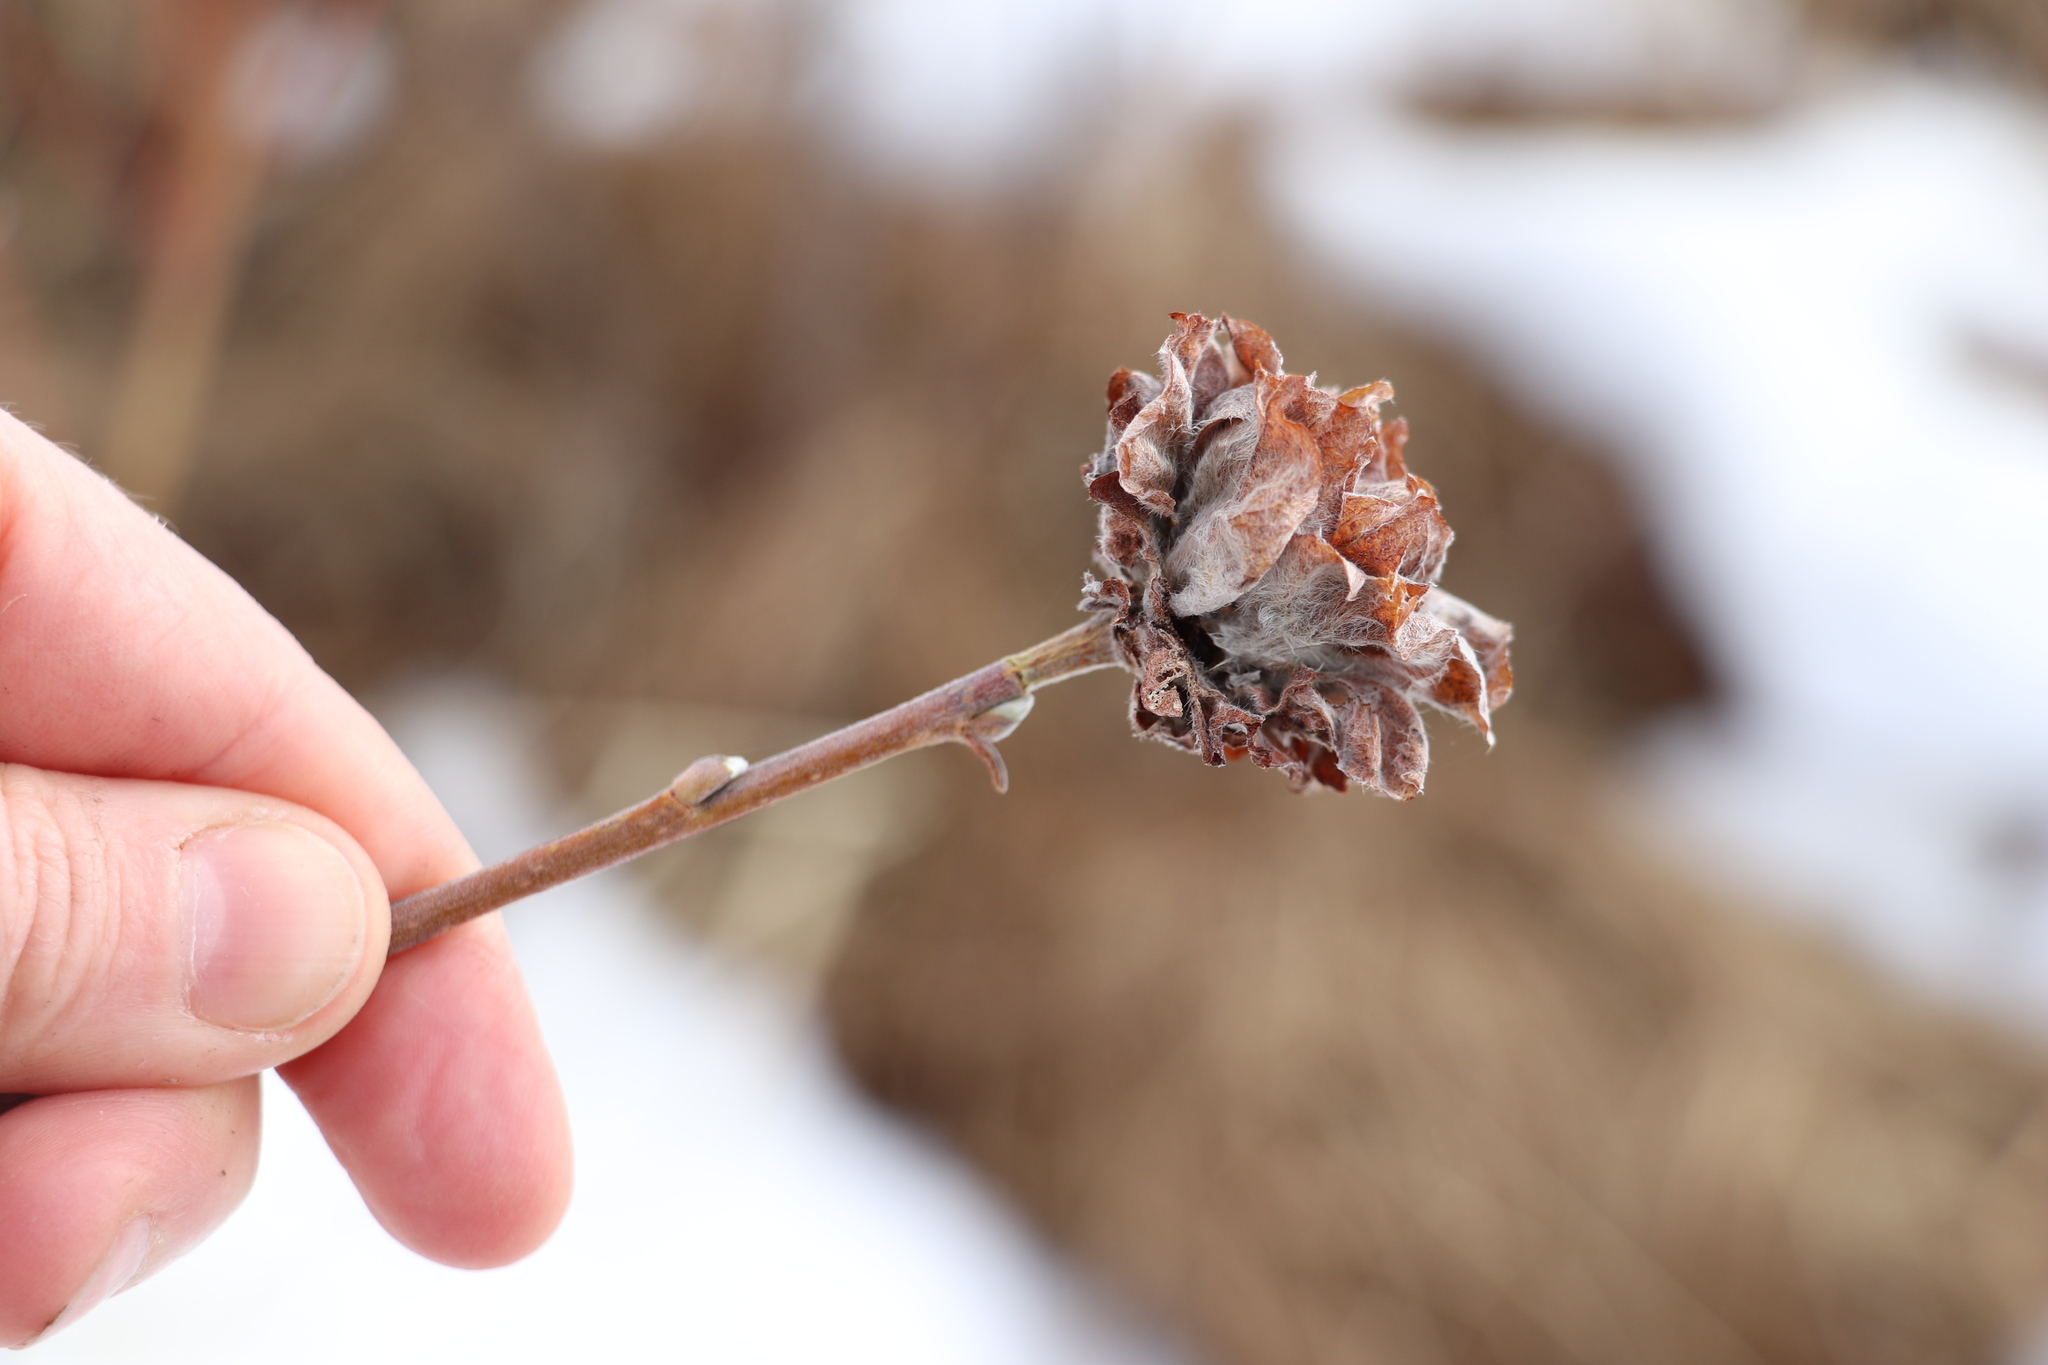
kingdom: Animalia
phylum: Arthropoda
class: Insecta
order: Diptera
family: Cecidomyiidae
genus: Rabdophaga
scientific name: Rabdophaga rosaria
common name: Willow rose gall midge
